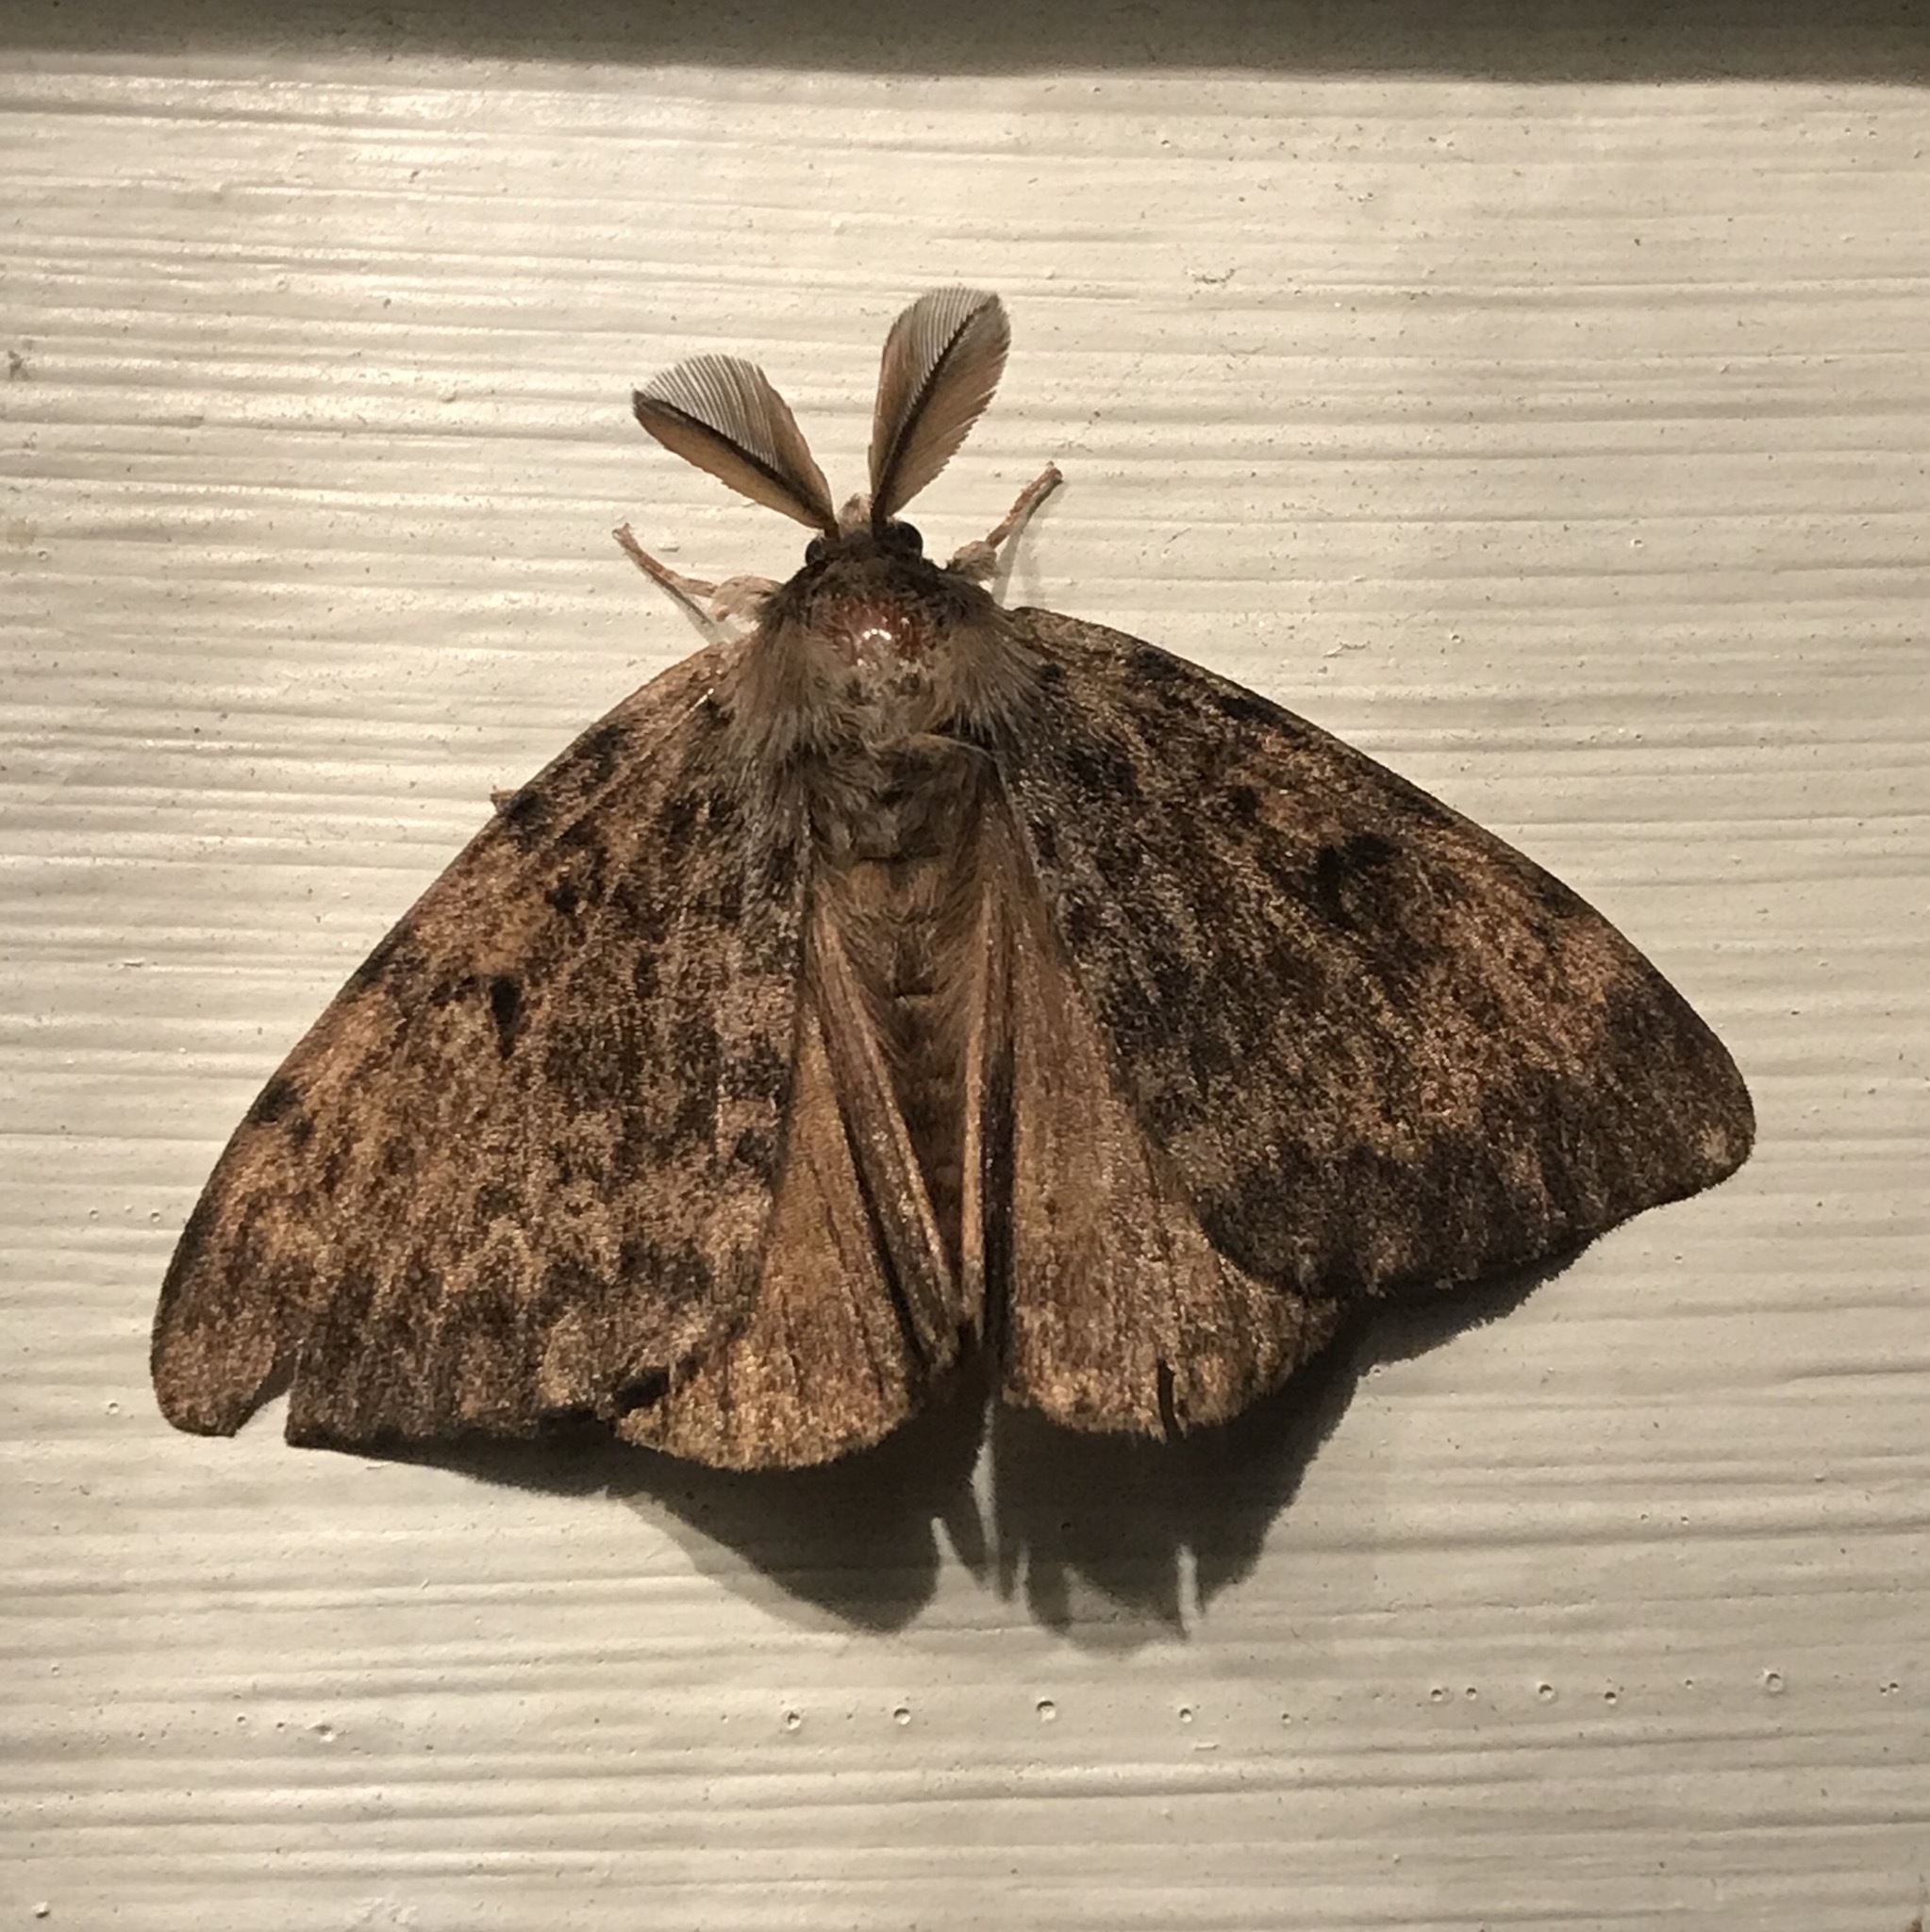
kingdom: Animalia
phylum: Arthropoda
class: Insecta
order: Lepidoptera
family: Erebidae
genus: Lymantria
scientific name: Lymantria dispar
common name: Gypsy moth
